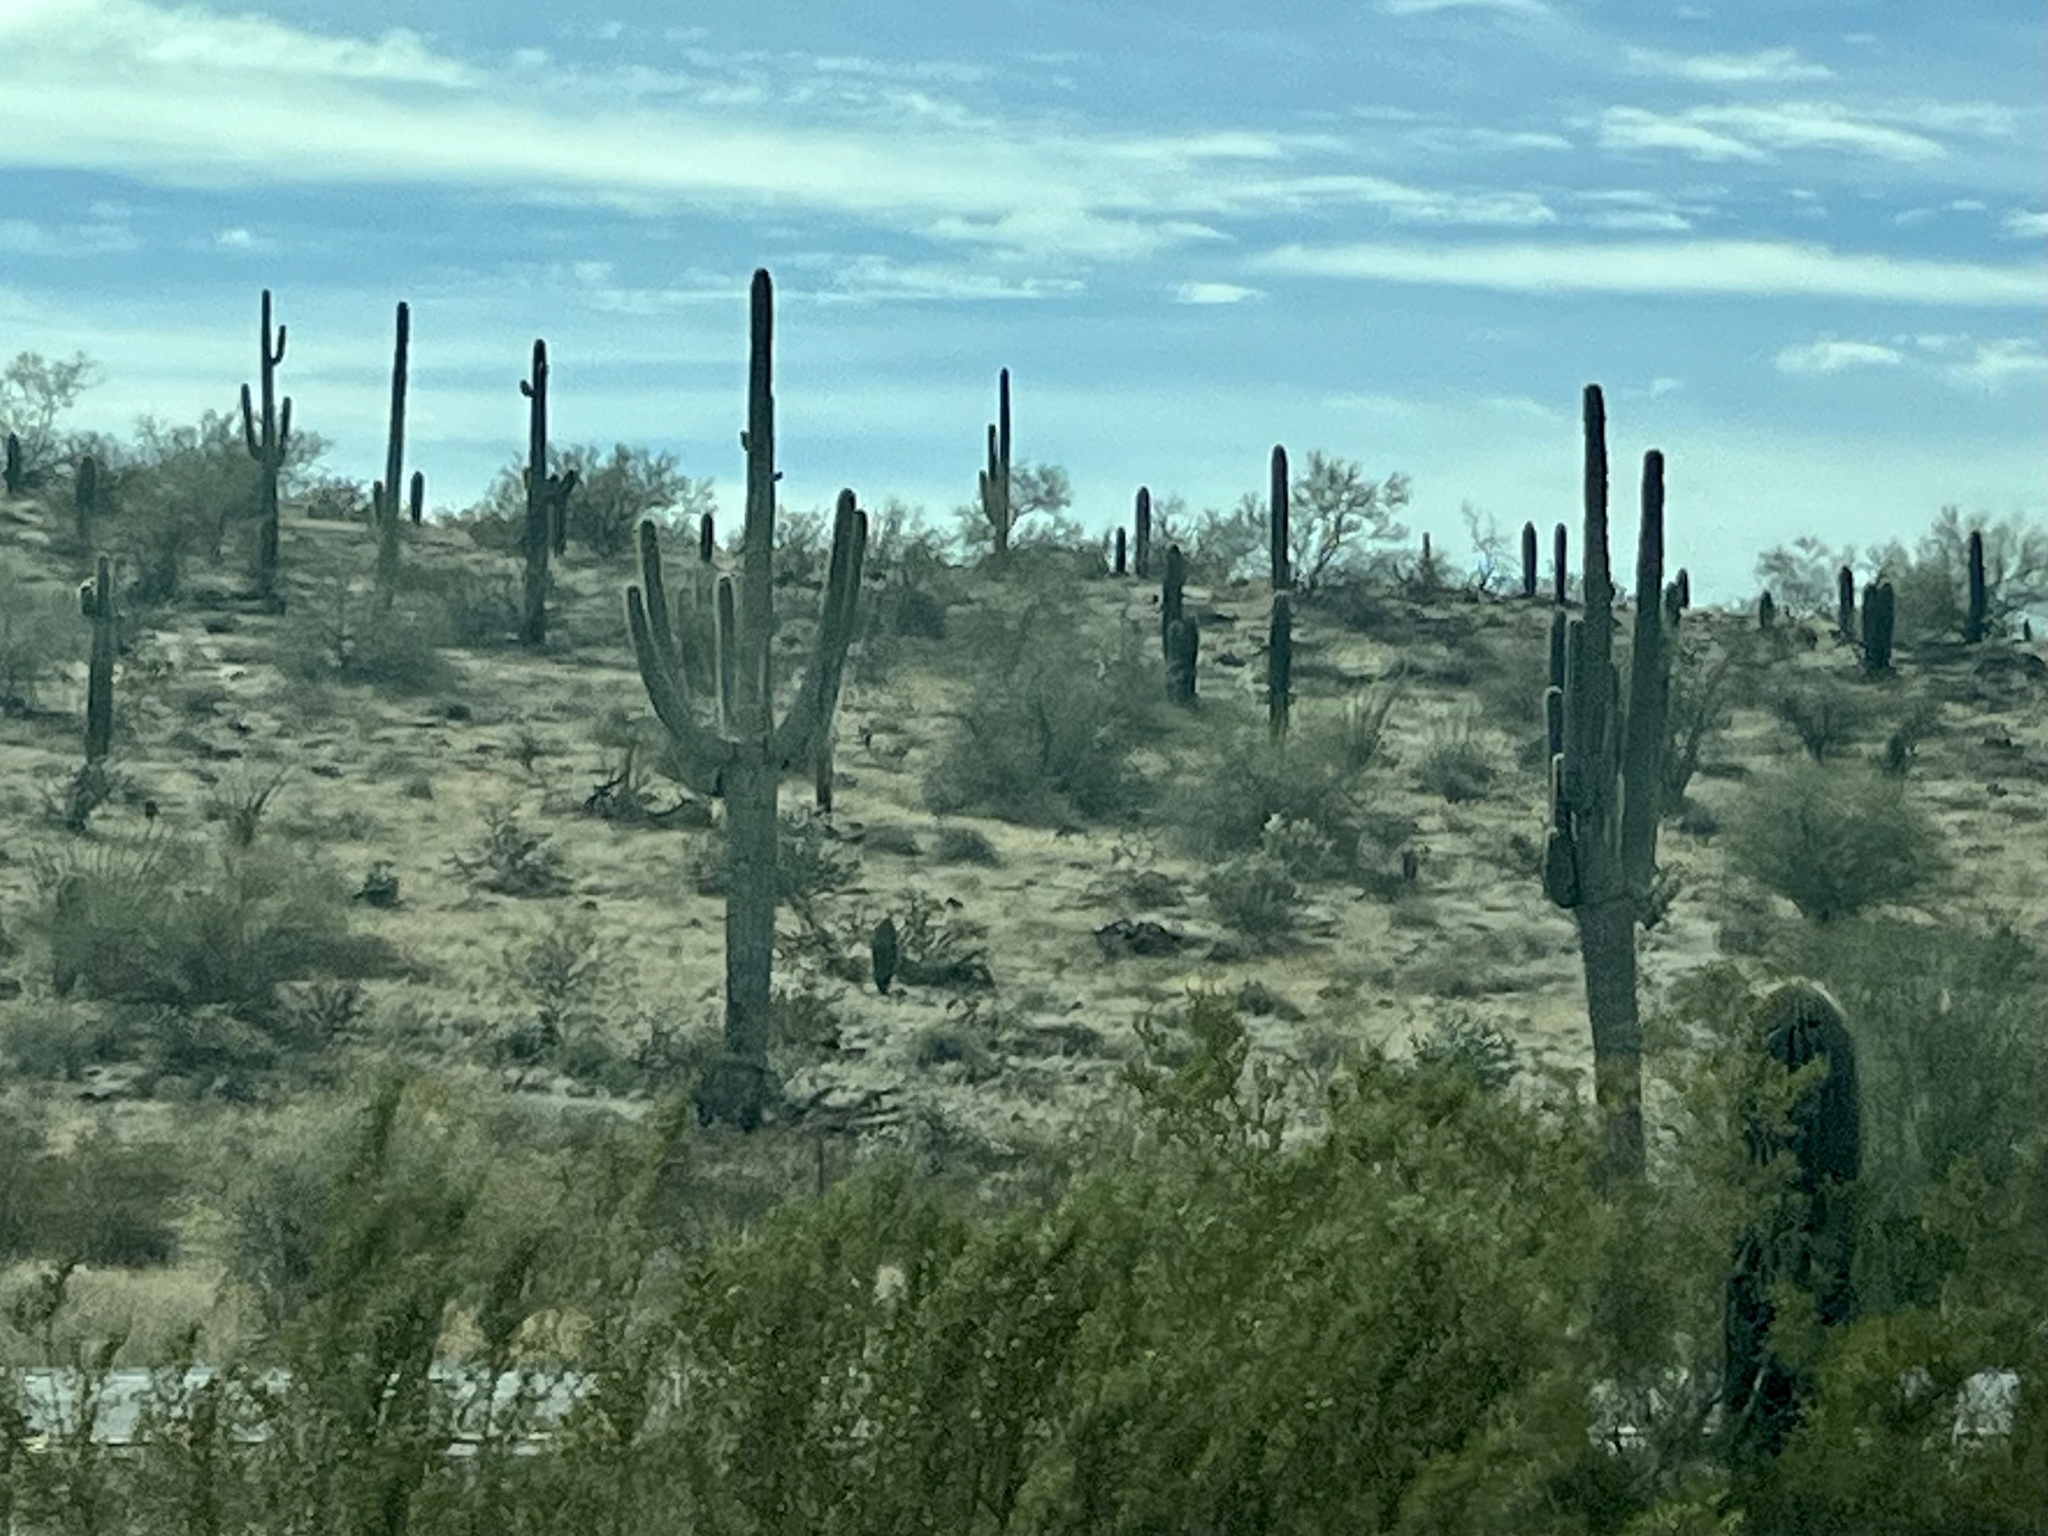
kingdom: Plantae
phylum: Tracheophyta
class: Magnoliopsida
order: Caryophyllales
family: Cactaceae
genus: Carnegiea
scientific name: Carnegiea gigantea
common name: Saguaro
